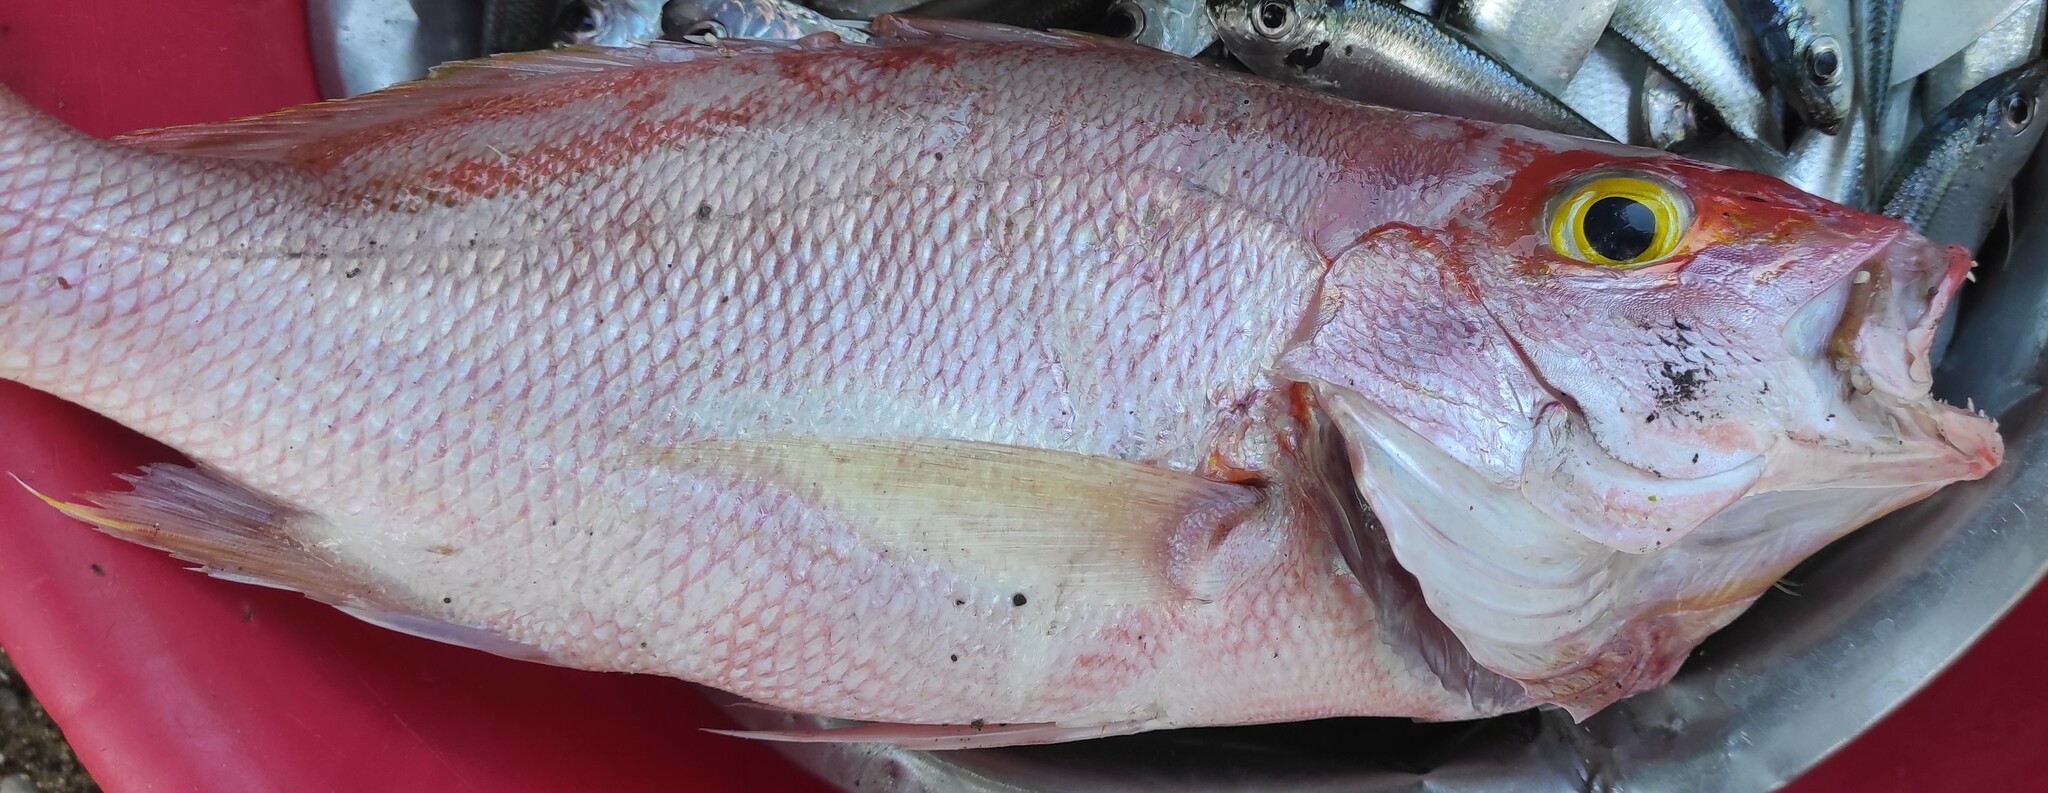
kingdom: Animalia
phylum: Chordata
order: Perciformes
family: Lutjanidae
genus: Lutjanus
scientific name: Lutjanus vivanus
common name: Silk snapper
